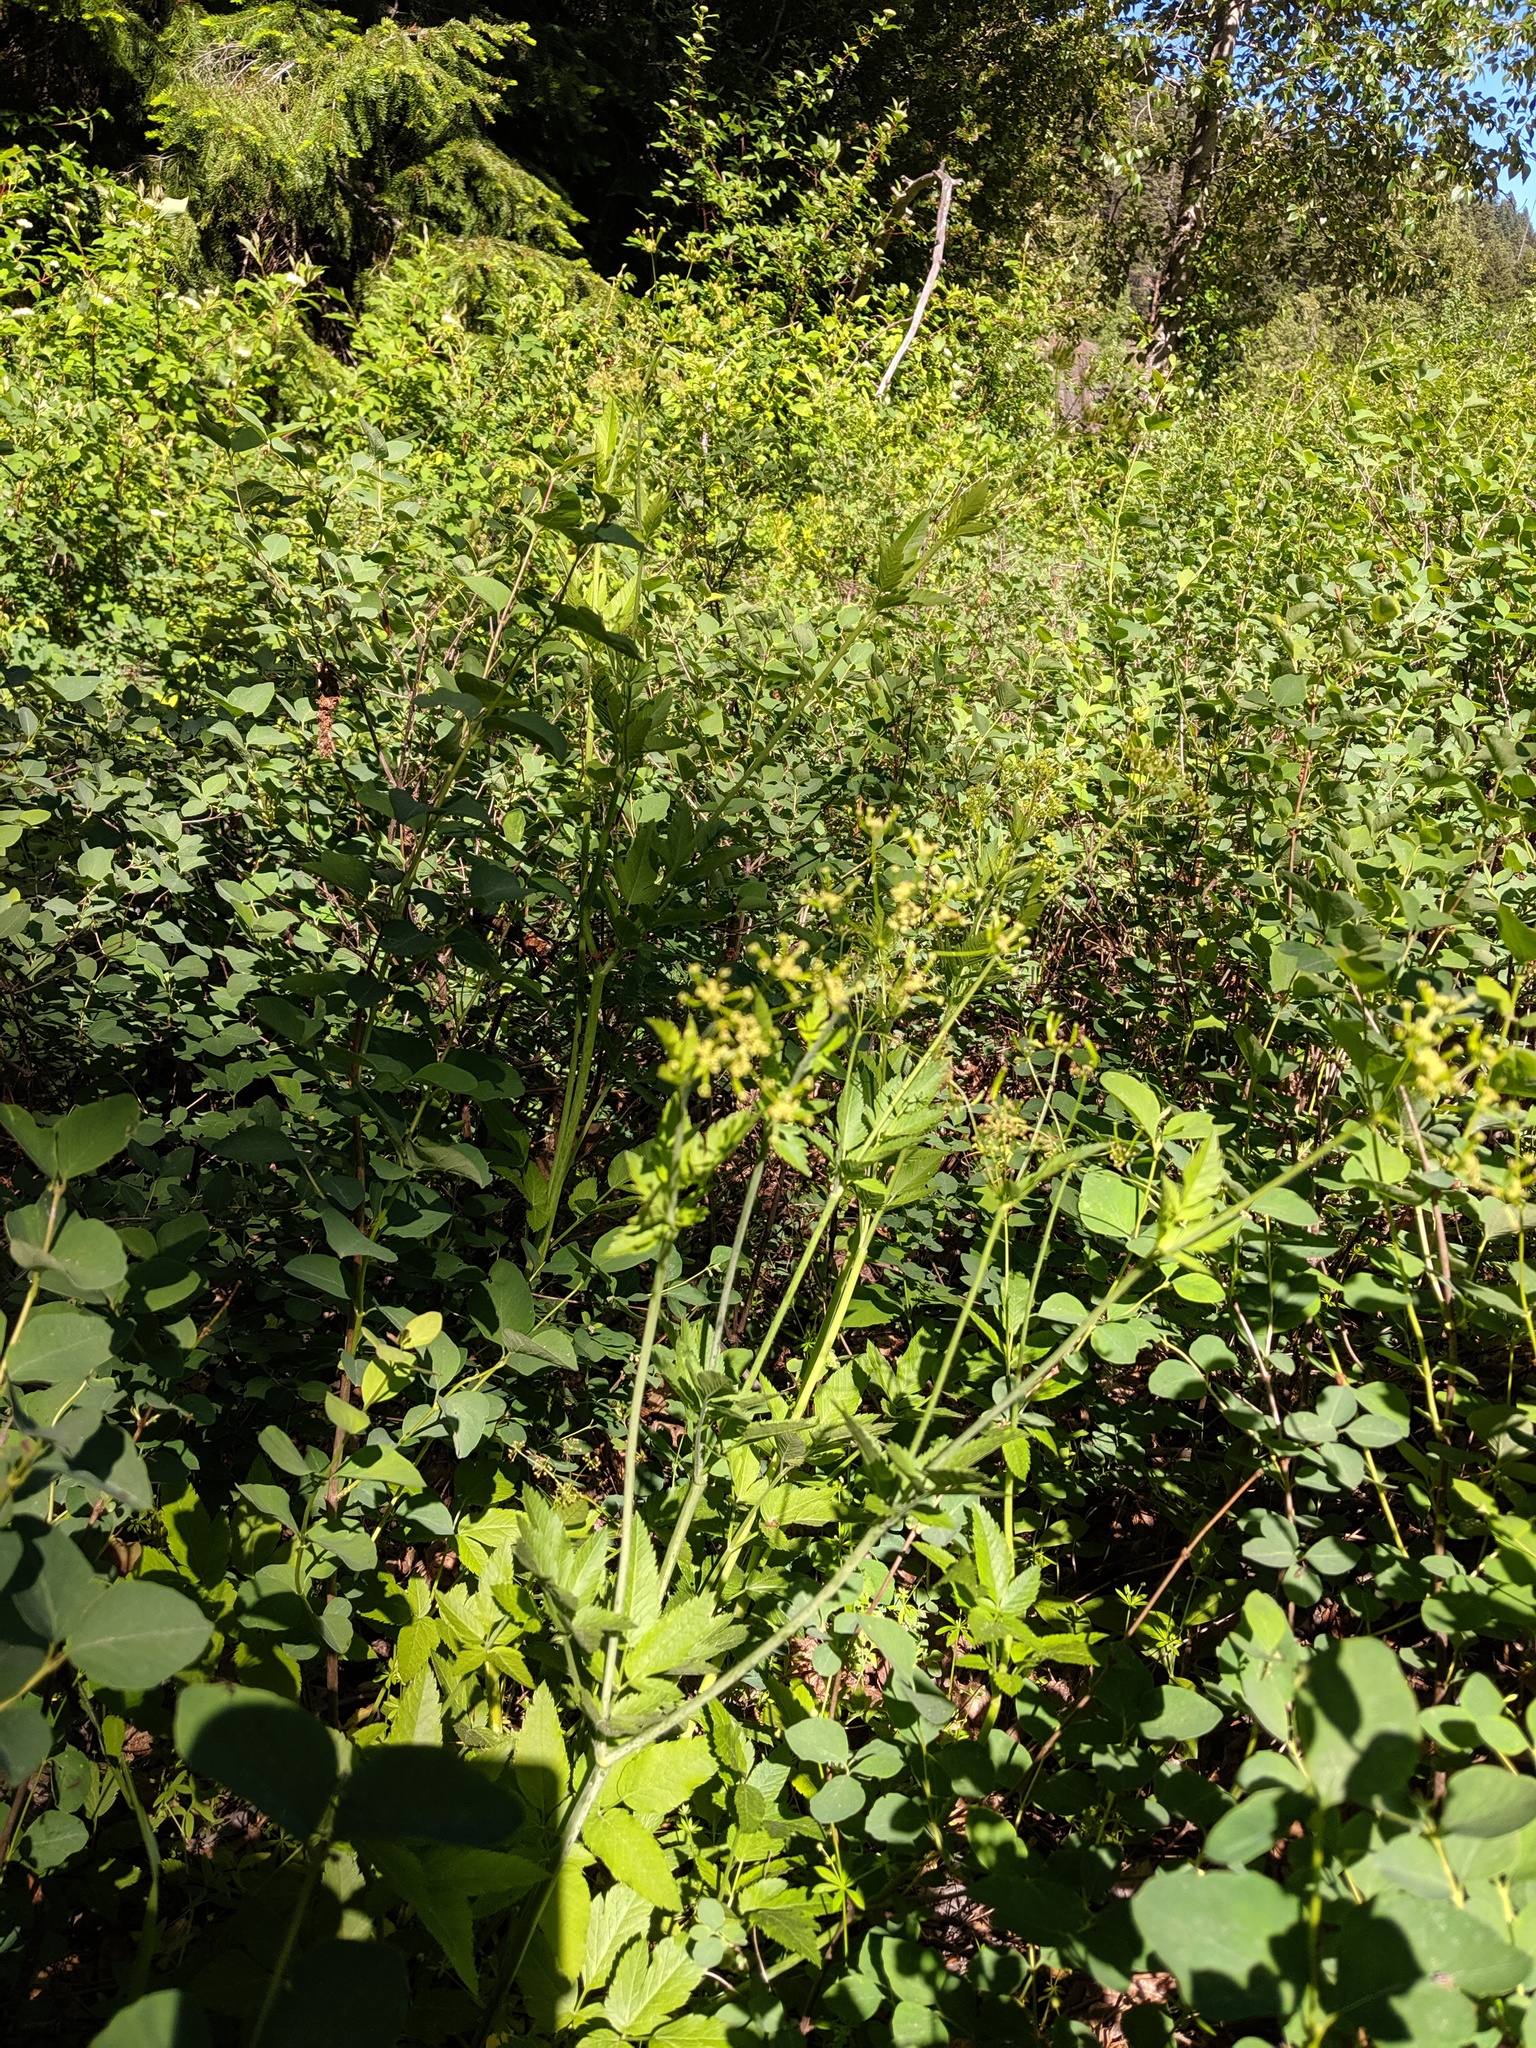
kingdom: Plantae
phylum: Tracheophyta
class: Magnoliopsida
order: Apiales
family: Apiaceae
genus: Osmorhiza
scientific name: Osmorhiza occidentalis
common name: Western sweet cicely
